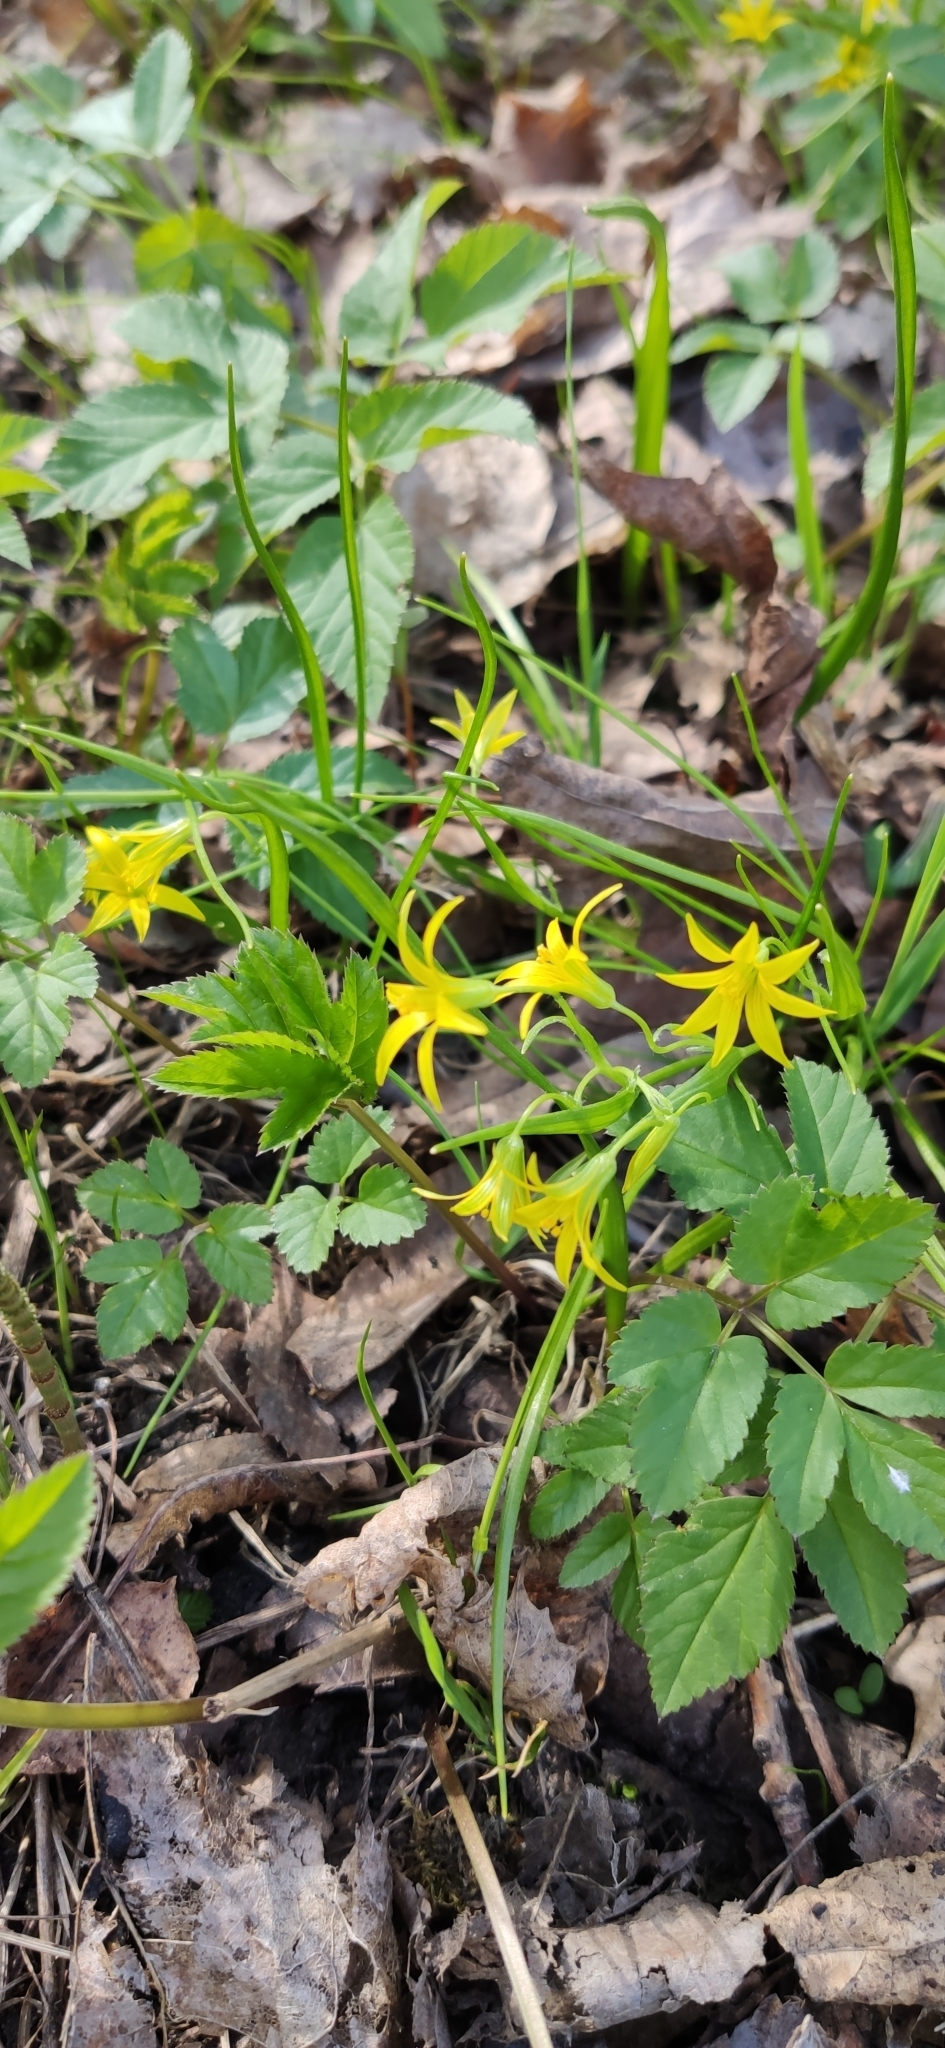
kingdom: Plantae
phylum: Tracheophyta
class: Liliopsida
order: Liliales
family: Liliaceae
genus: Gagea
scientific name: Gagea minima
